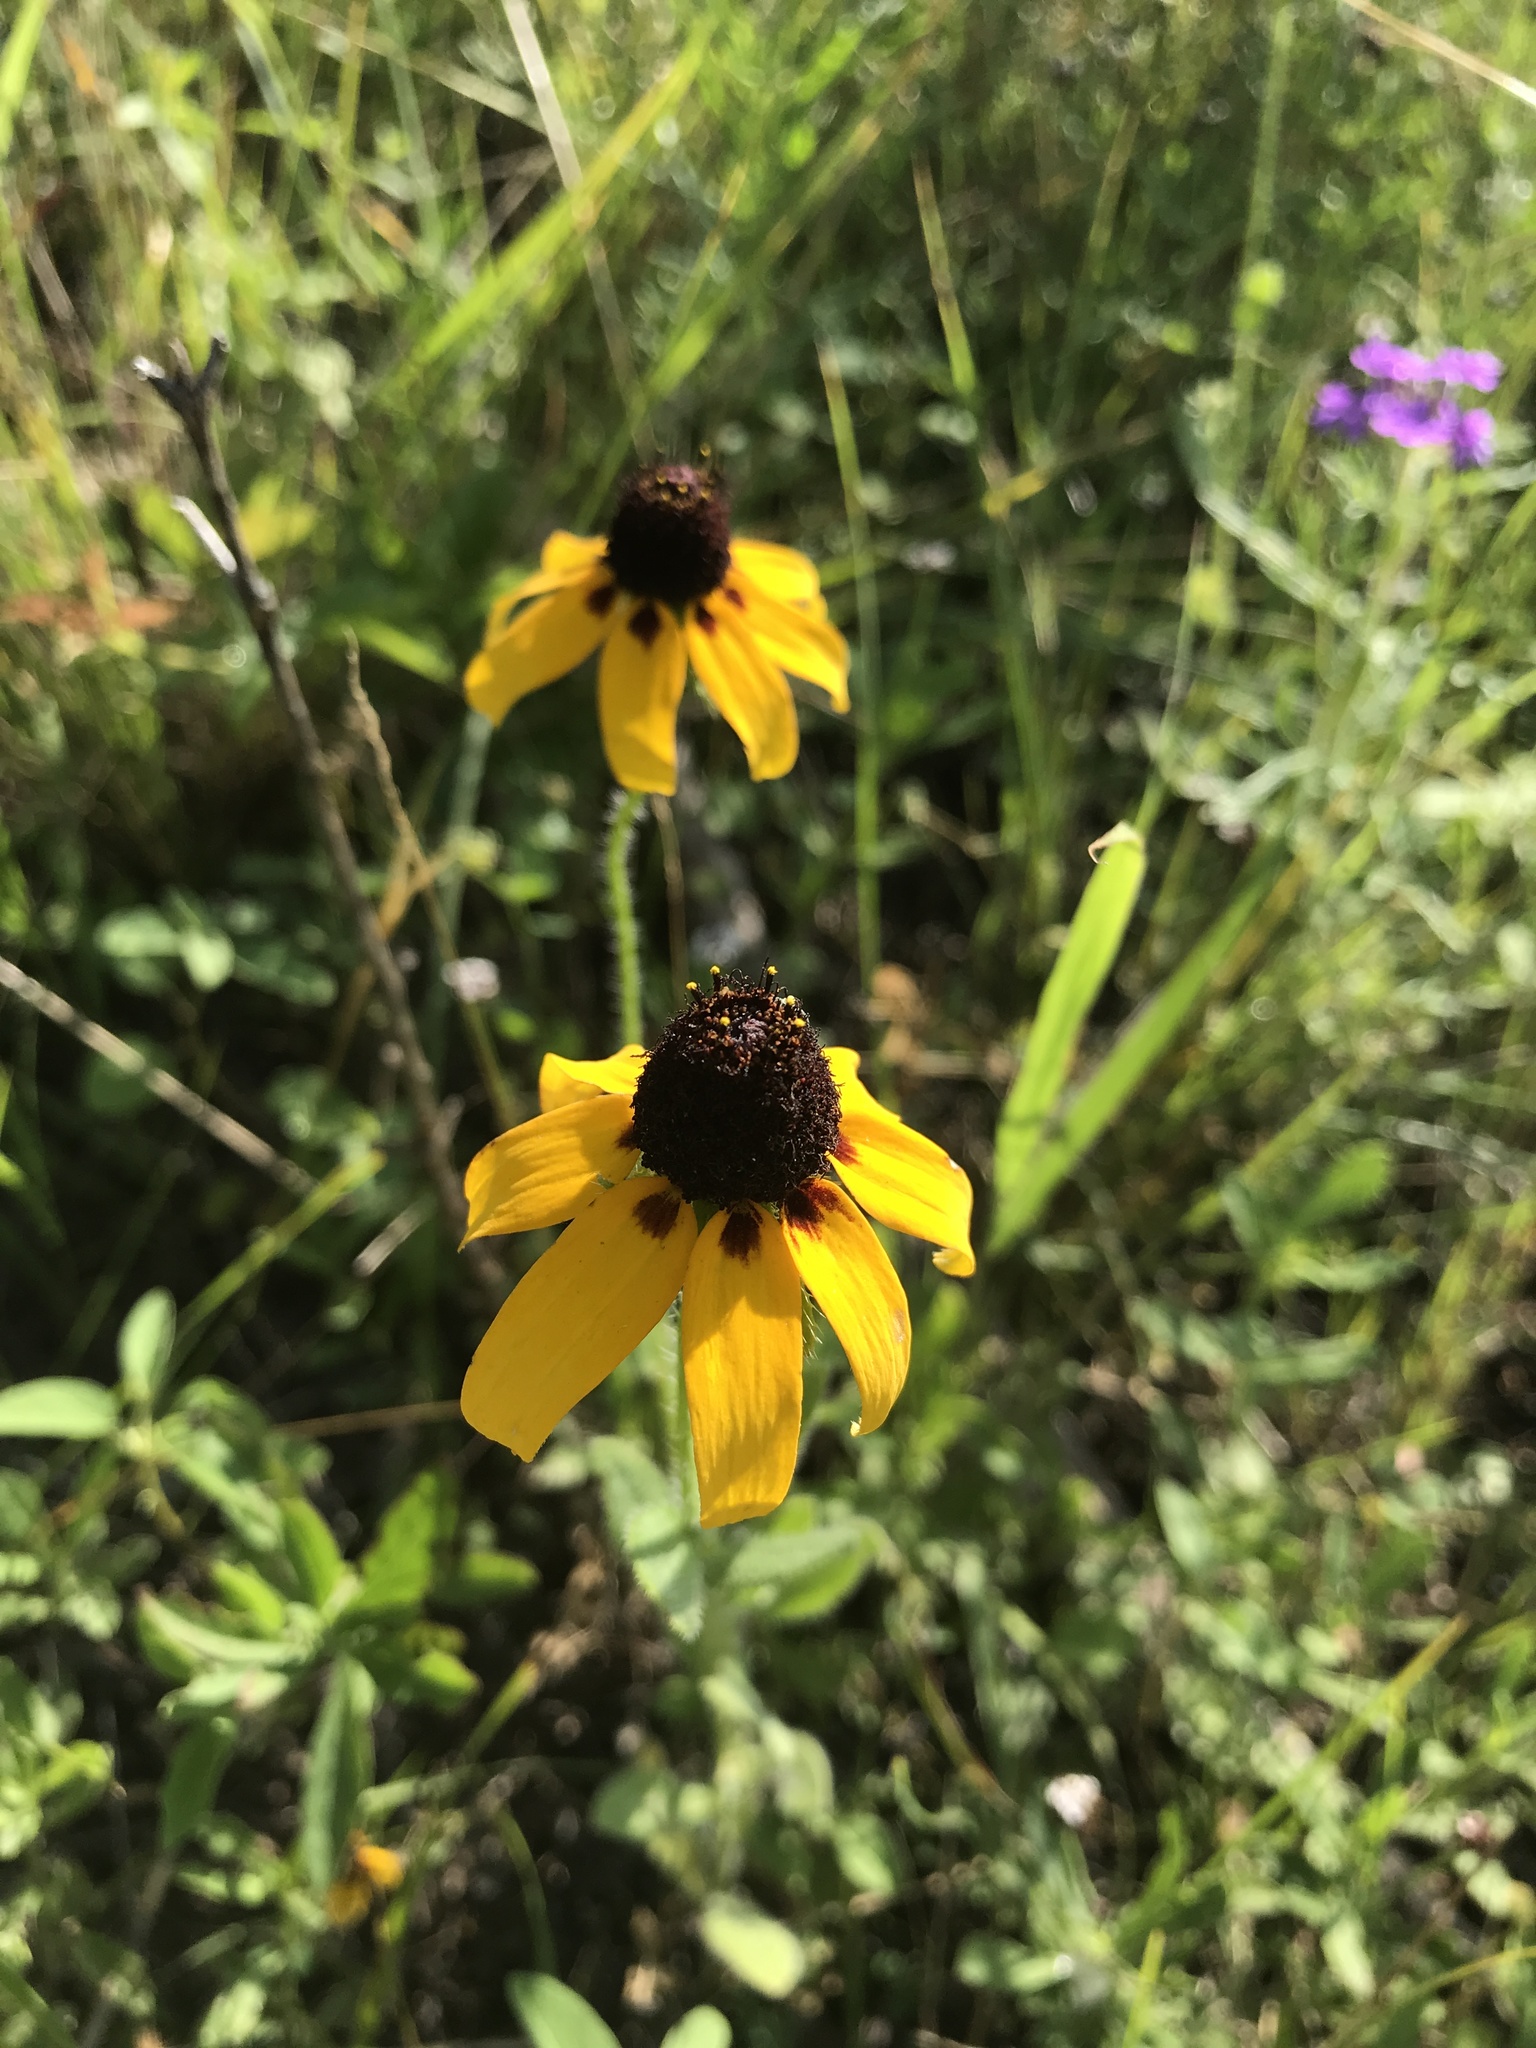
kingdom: Plantae
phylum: Tracheophyta
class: Magnoliopsida
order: Asterales
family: Asteraceae
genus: Rudbeckia
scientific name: Rudbeckia hirta
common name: Black-eyed-susan
